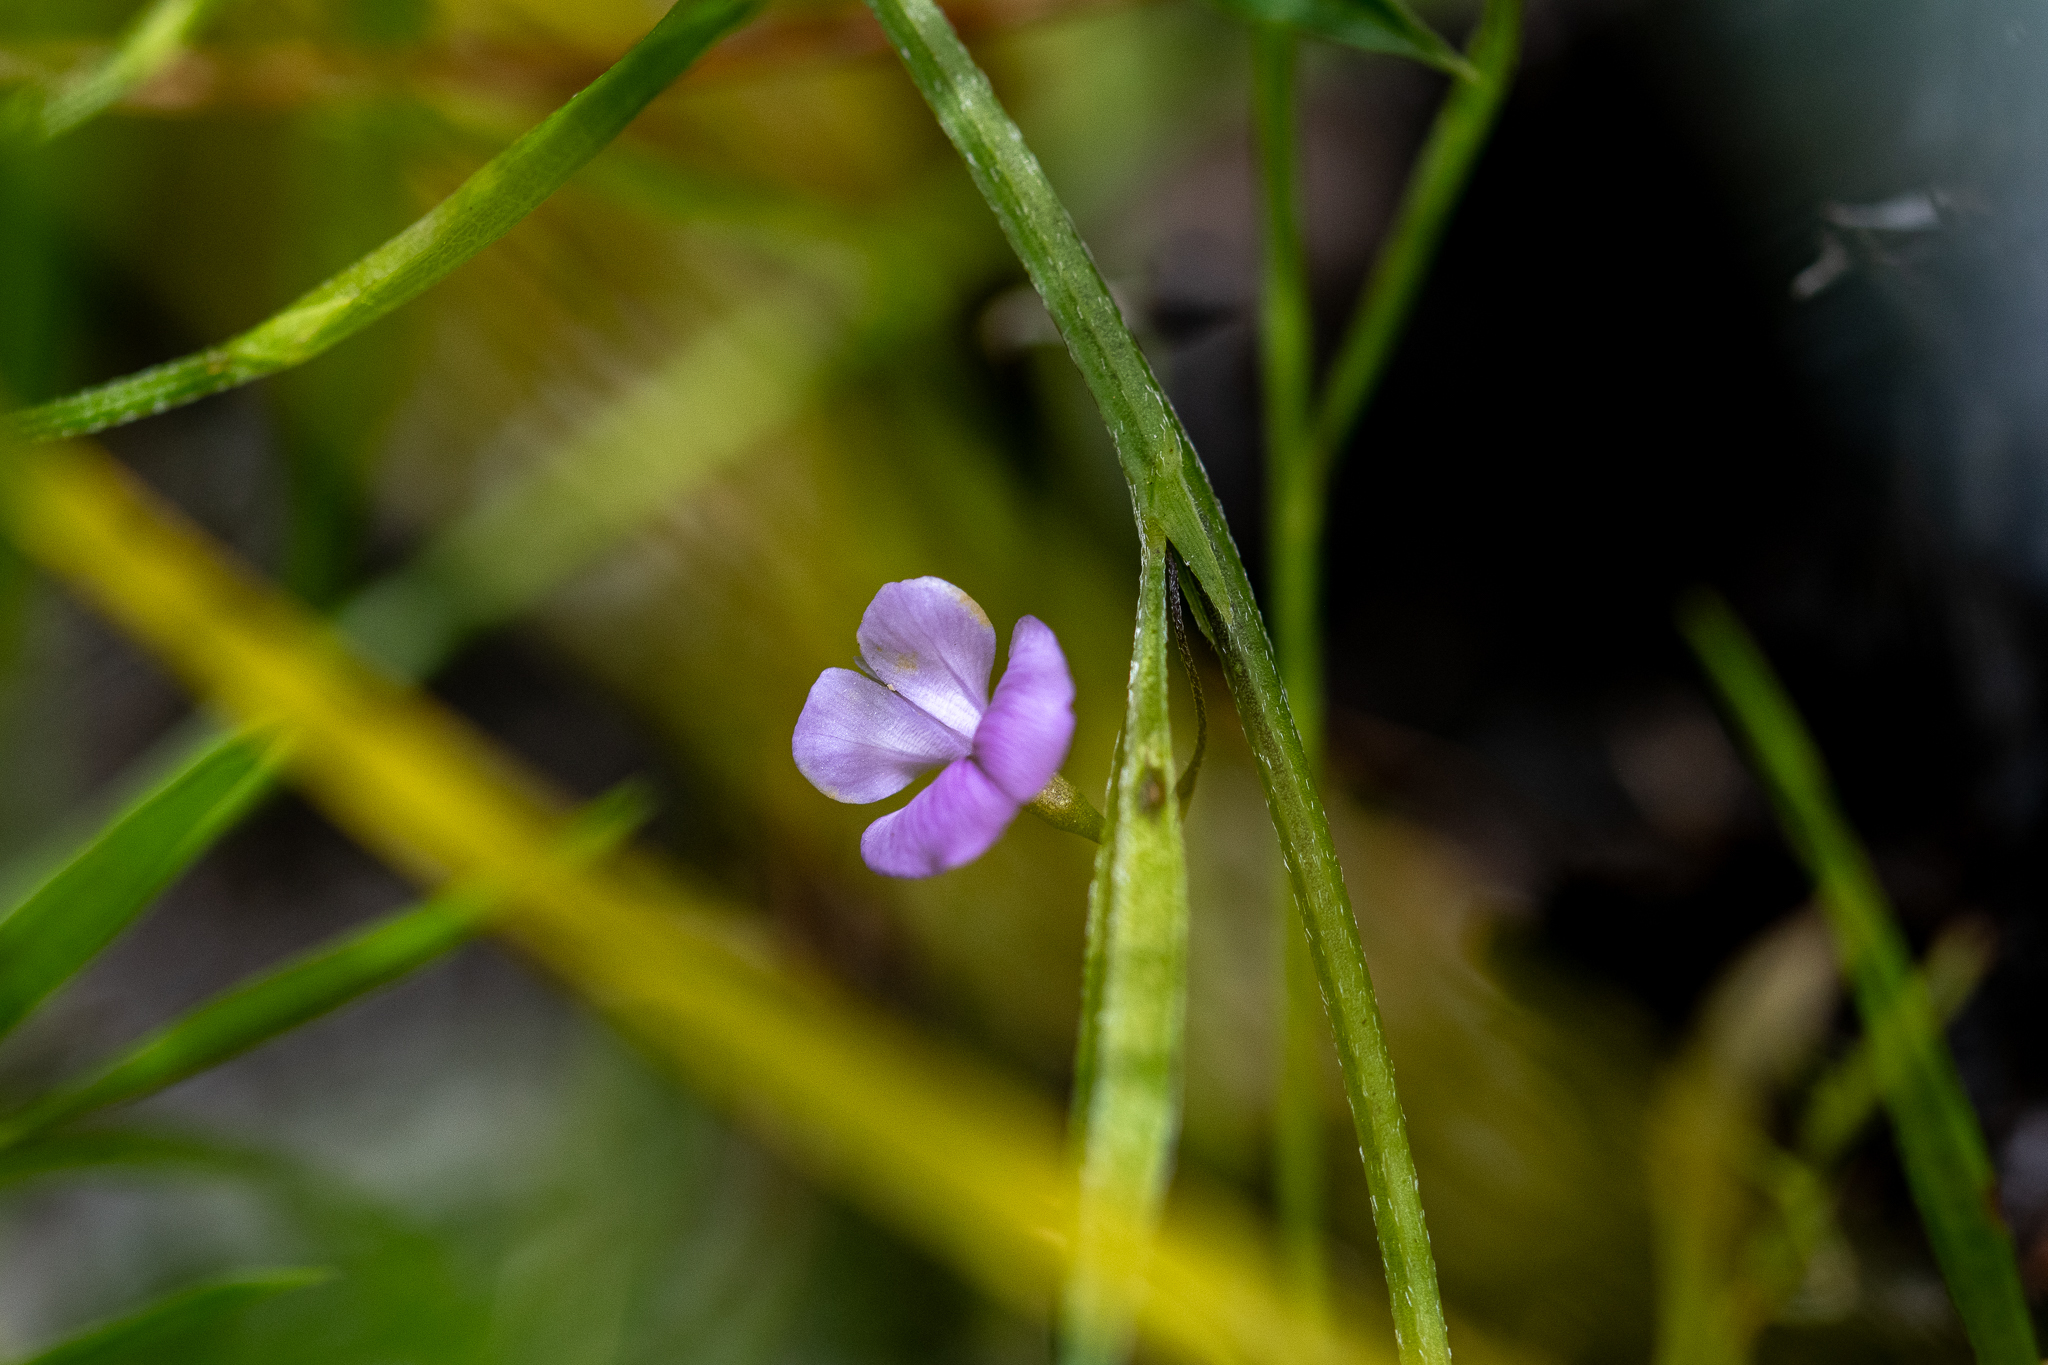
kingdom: Plantae
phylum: Tracheophyta
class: Magnoliopsida
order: Fabales
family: Fabaceae
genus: Psoralea
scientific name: Psoralea laxa
